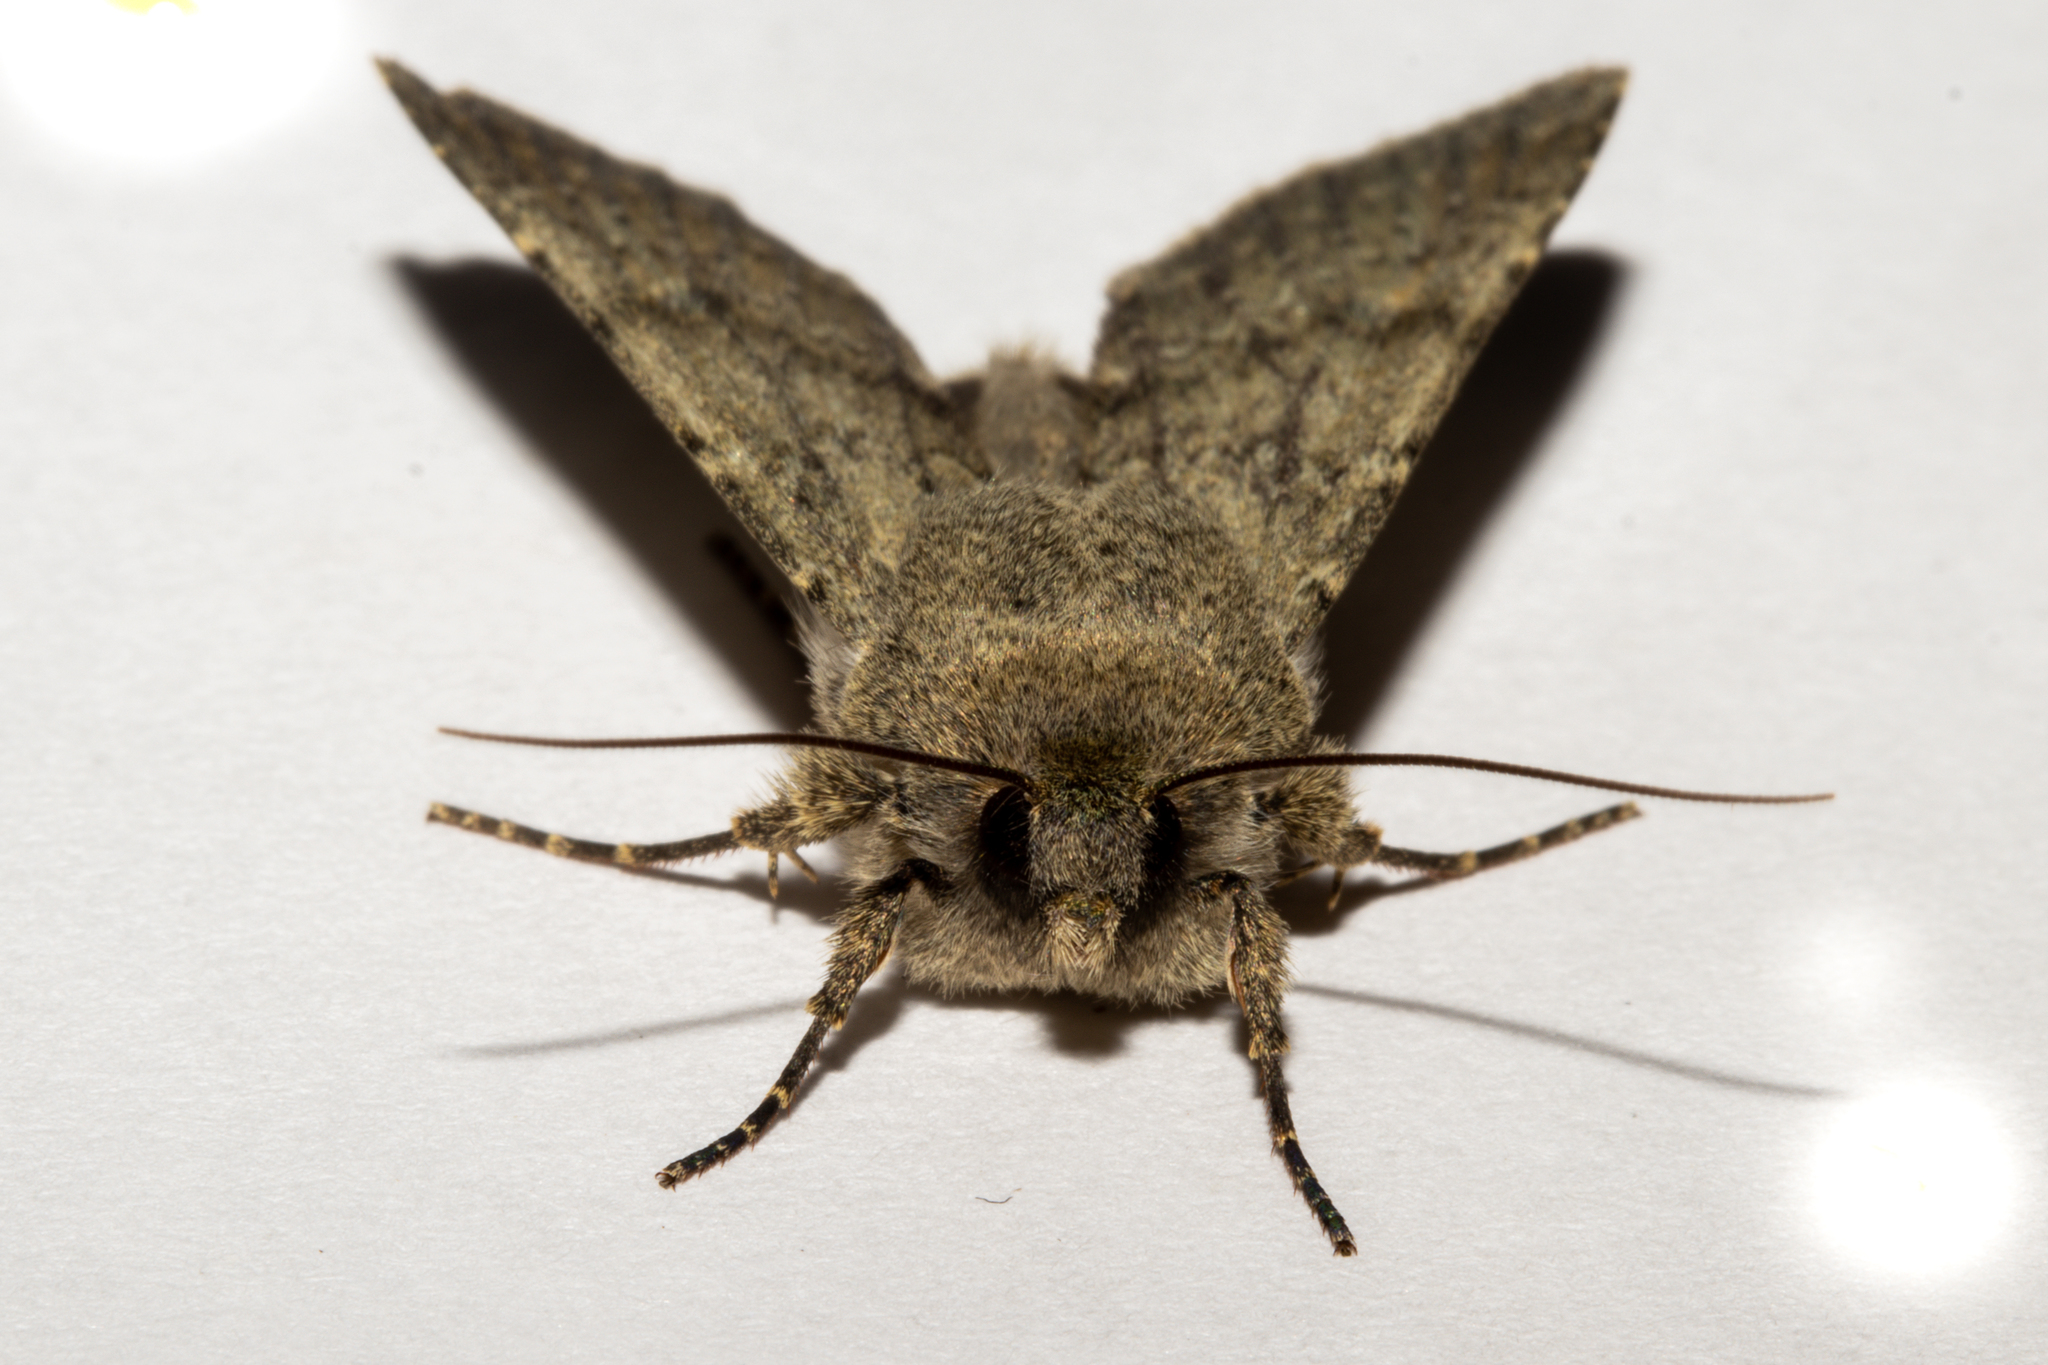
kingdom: Animalia
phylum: Arthropoda
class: Insecta
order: Lepidoptera
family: Noctuidae
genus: Ichneutica
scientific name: Ichneutica moderata
